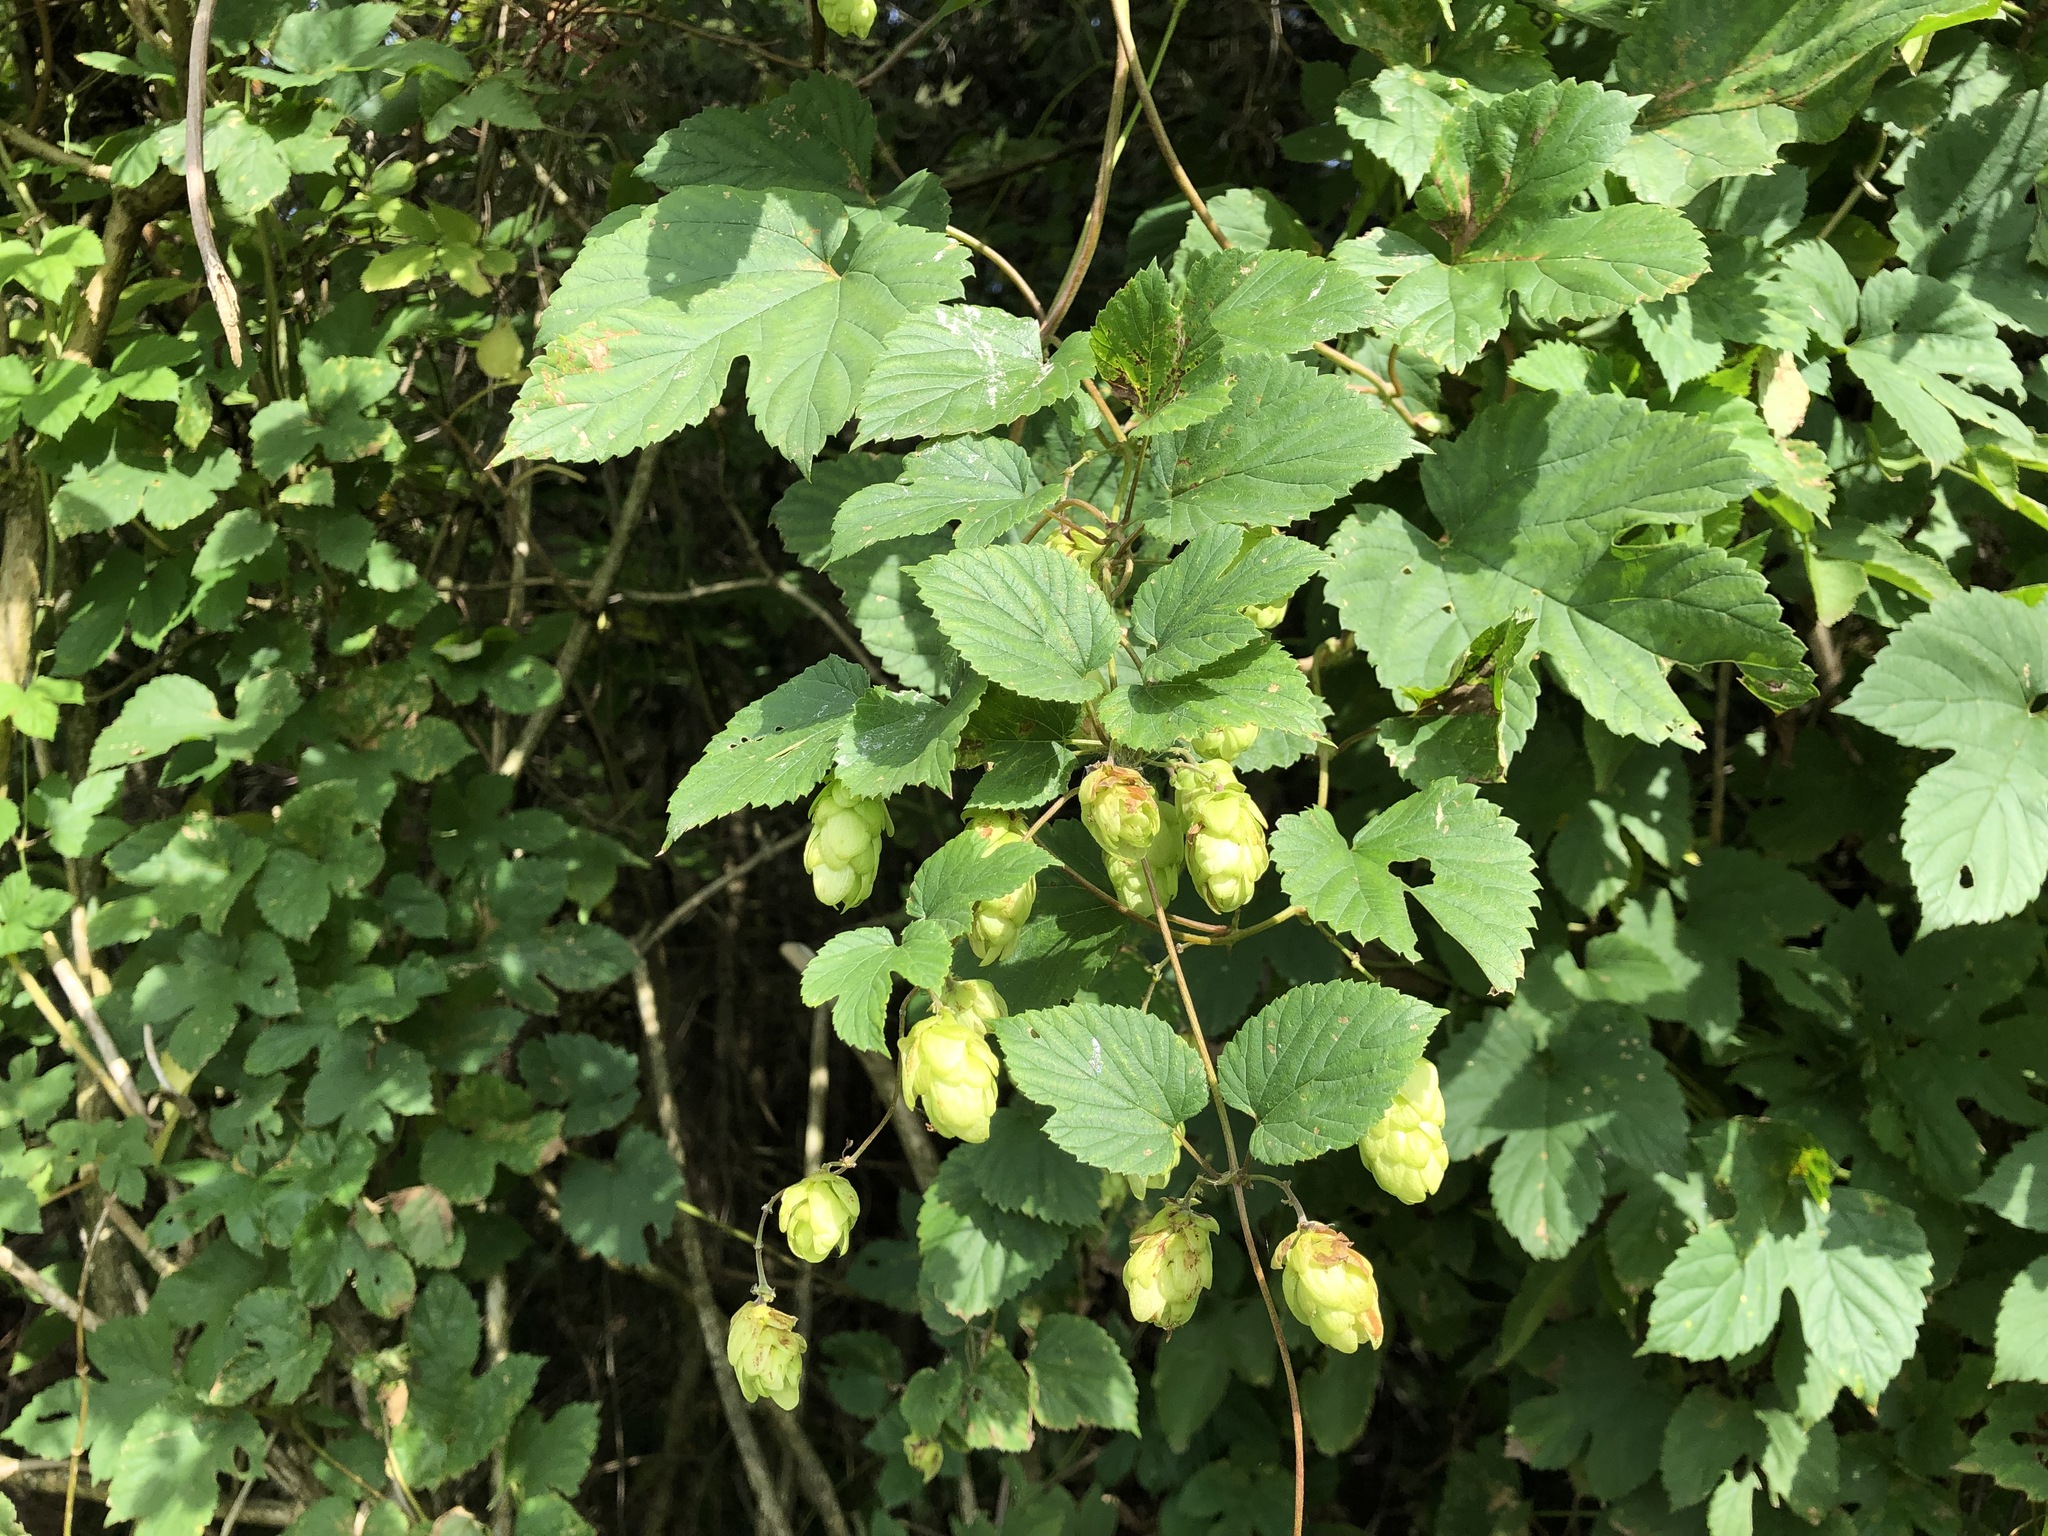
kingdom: Plantae
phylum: Tracheophyta
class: Magnoliopsida
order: Rosales
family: Cannabaceae
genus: Humulus
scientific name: Humulus lupulus
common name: Hop
